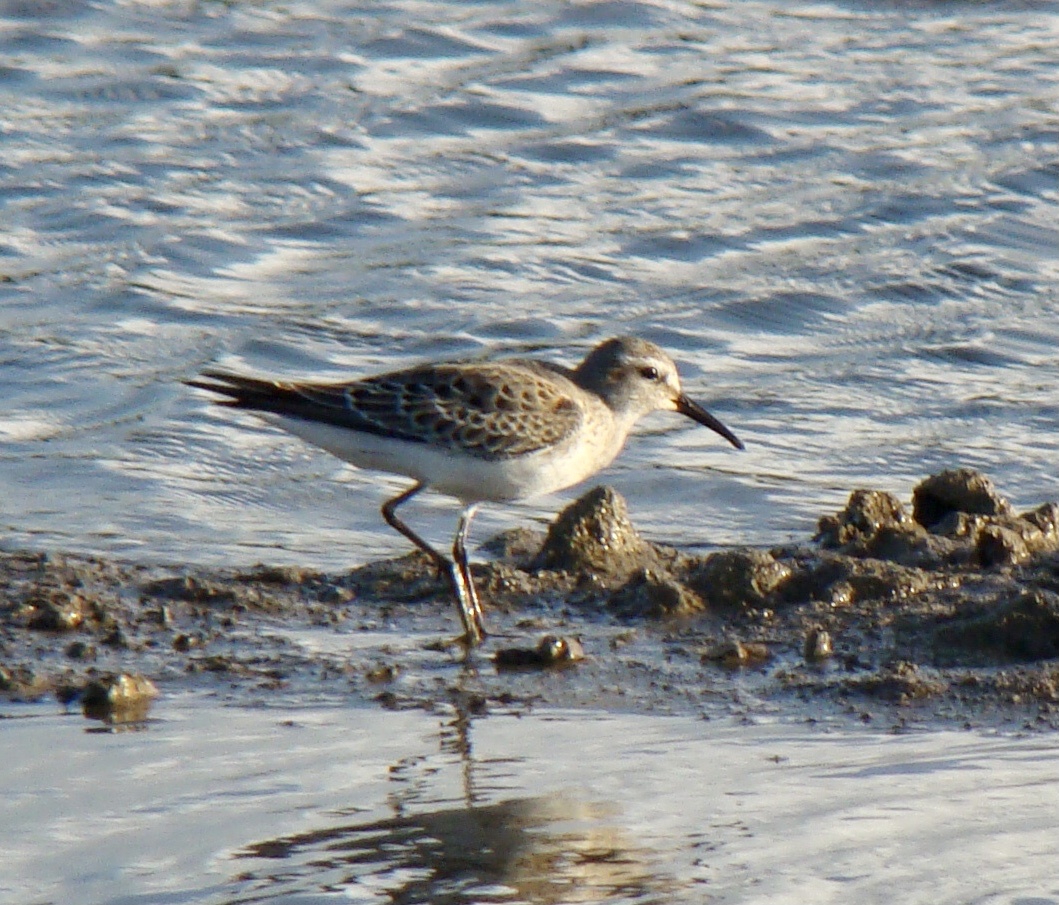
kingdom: Animalia
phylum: Chordata
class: Aves
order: Charadriiformes
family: Scolopacidae
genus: Calidris
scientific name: Calidris fuscicollis
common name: White-rumped sandpiper
